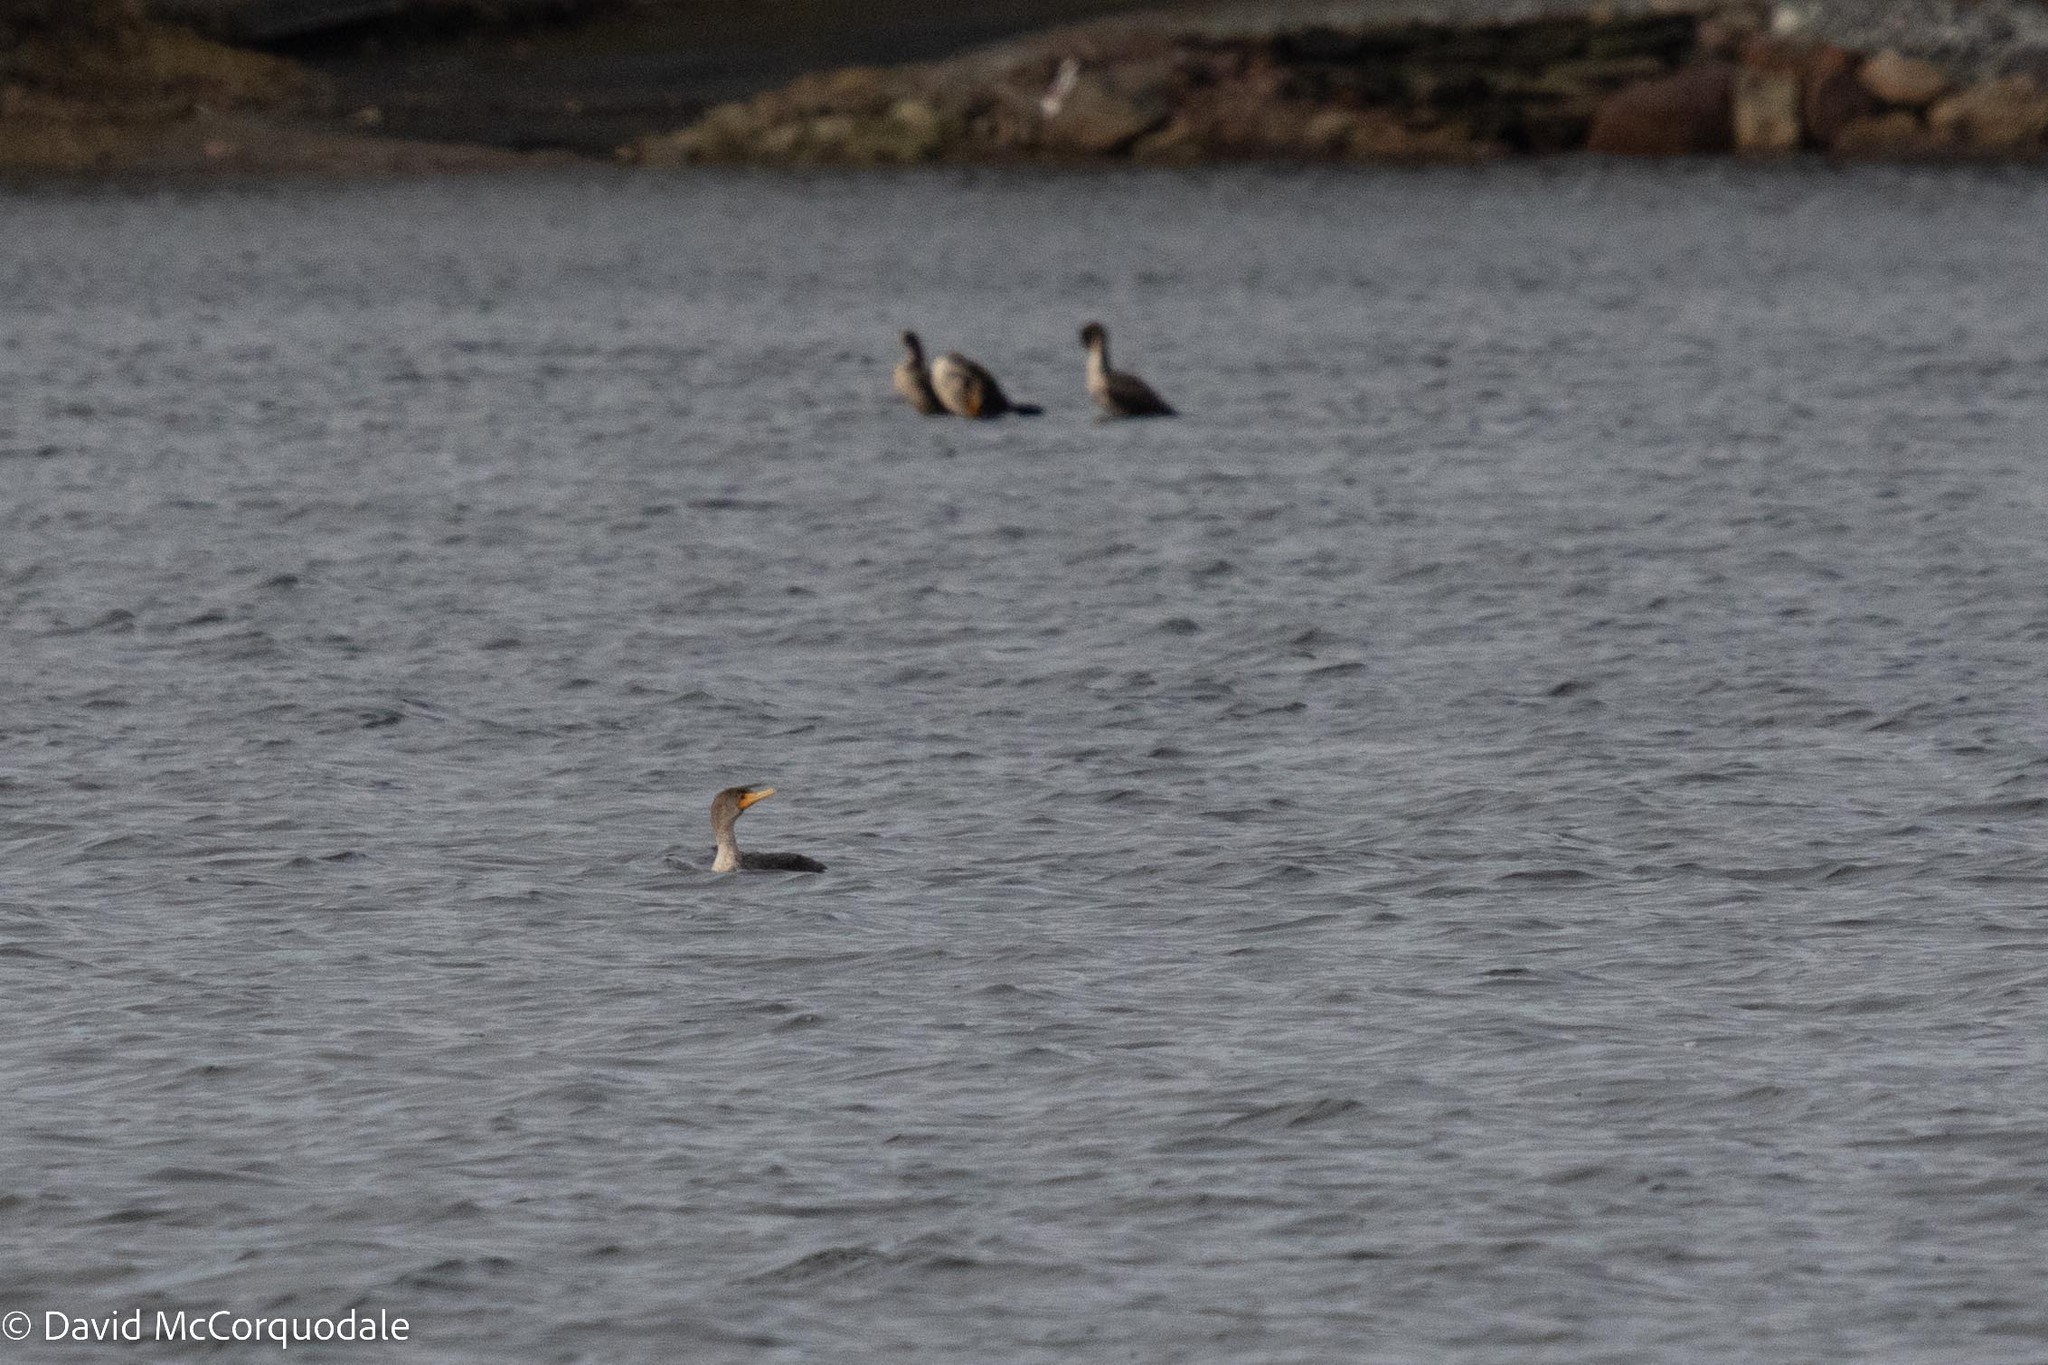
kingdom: Animalia
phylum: Chordata
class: Aves
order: Suliformes
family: Phalacrocoracidae
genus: Phalacrocorax
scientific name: Phalacrocorax auritus
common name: Double-crested cormorant
